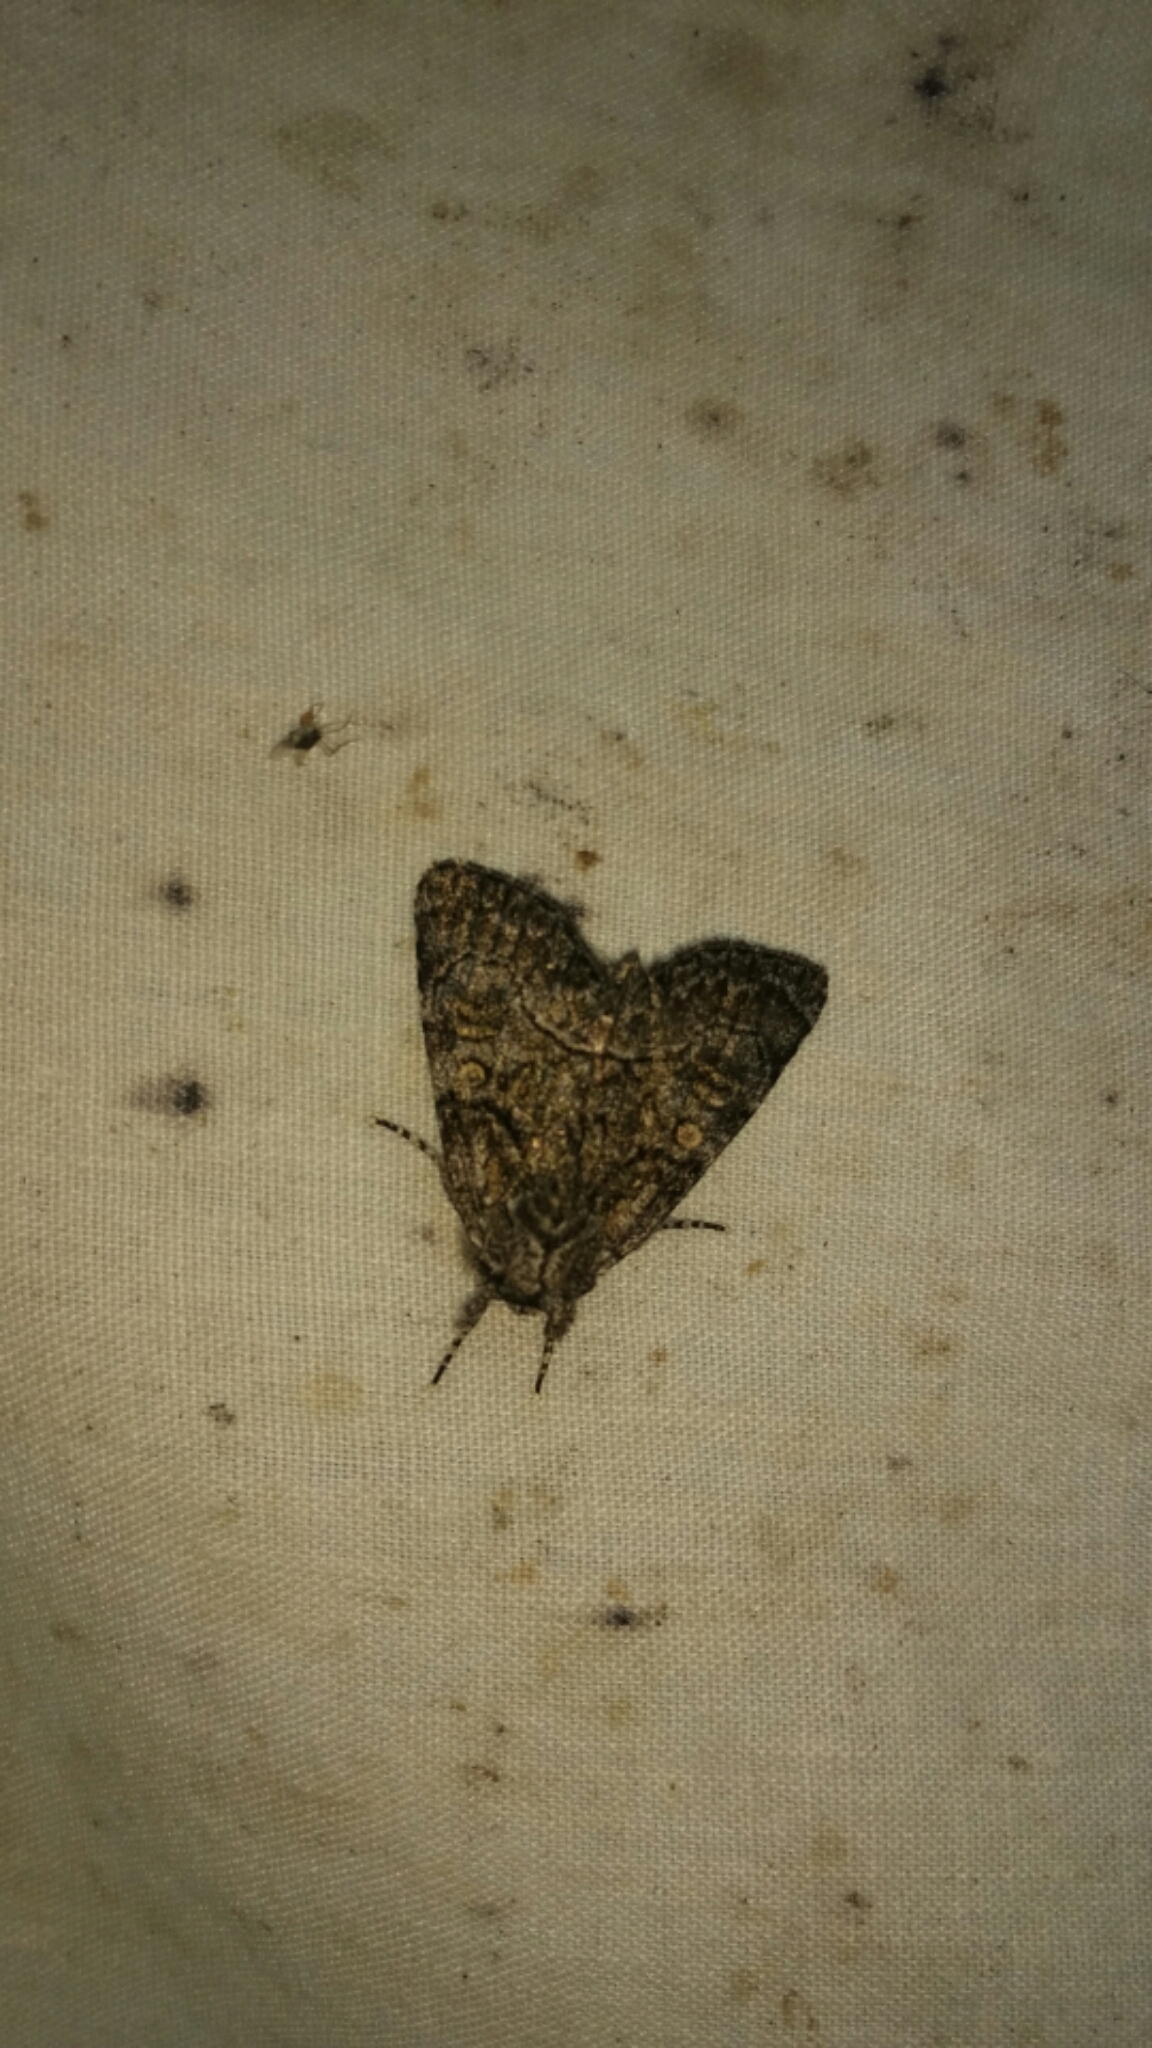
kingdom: Animalia
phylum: Arthropoda
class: Insecta
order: Lepidoptera
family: Noctuidae
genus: Raphia
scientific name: Raphia frater
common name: Brother
